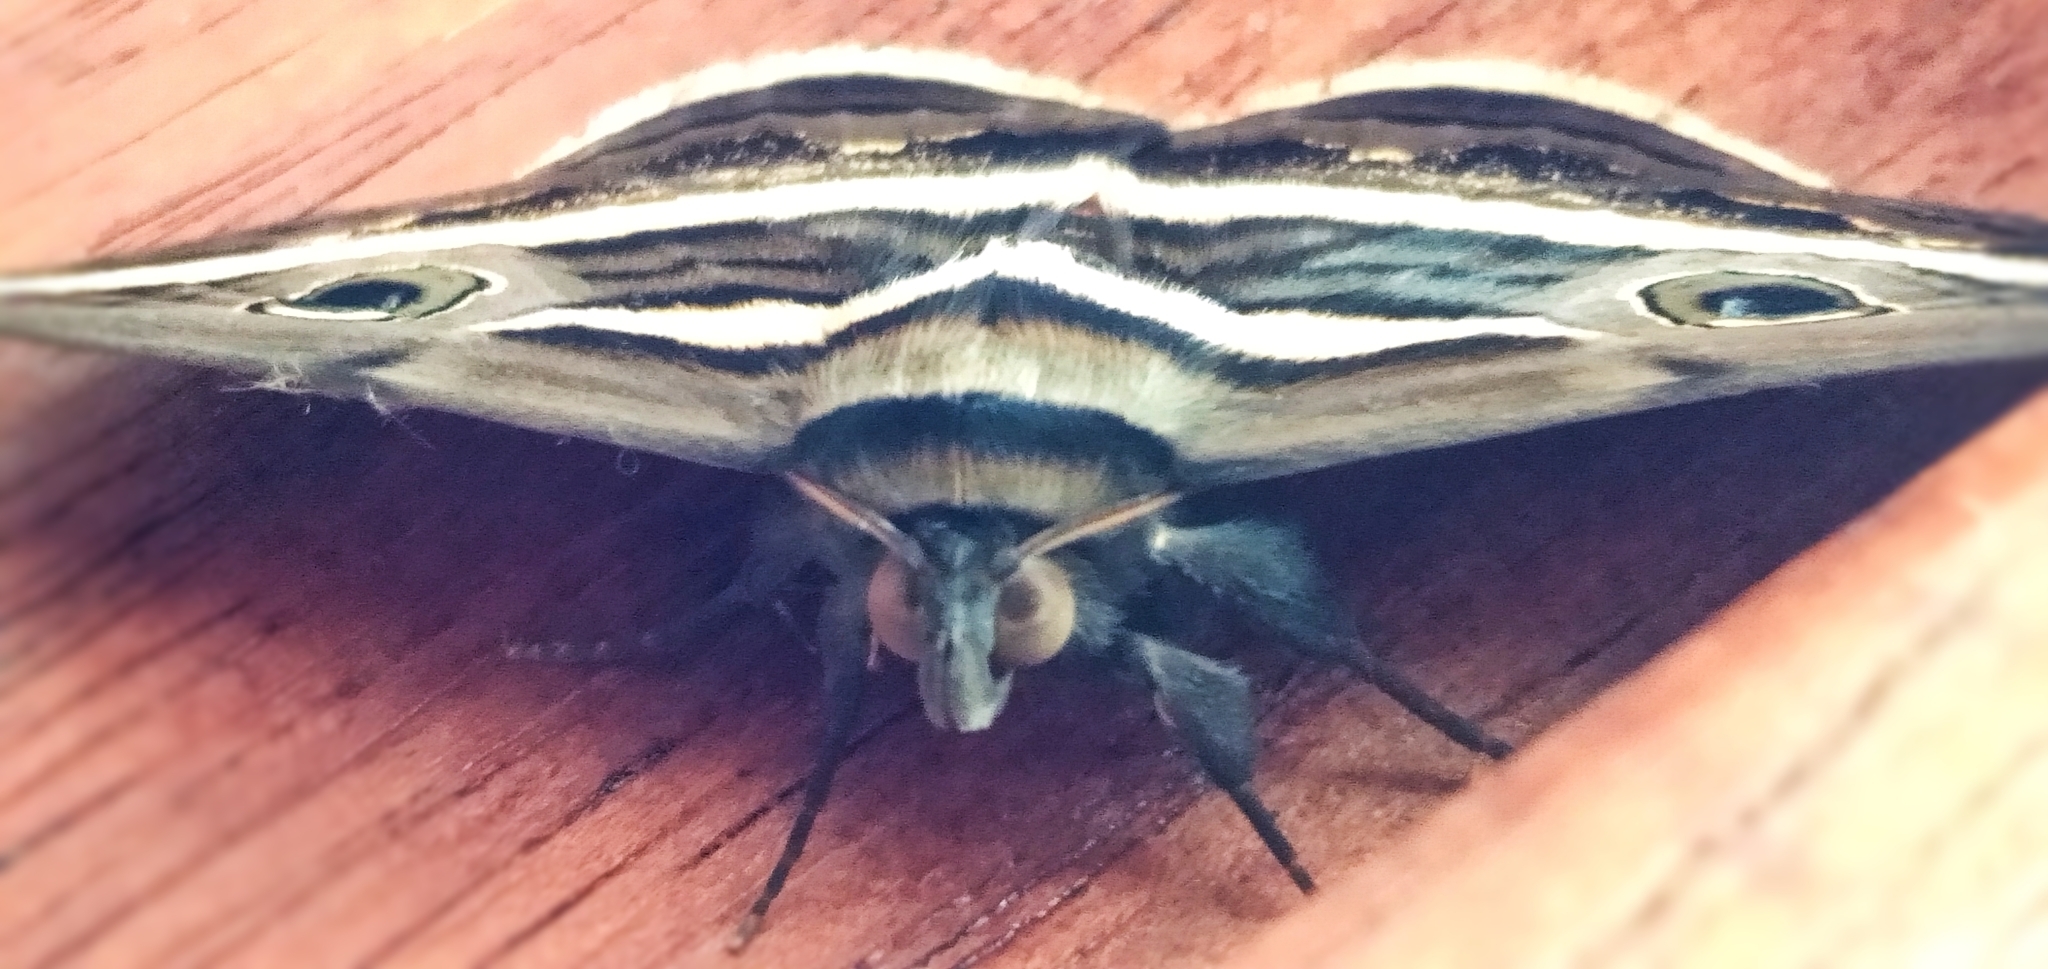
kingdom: Animalia
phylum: Arthropoda
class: Insecta
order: Lepidoptera
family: Erebidae
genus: Donuca
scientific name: Donuca rubropicta
